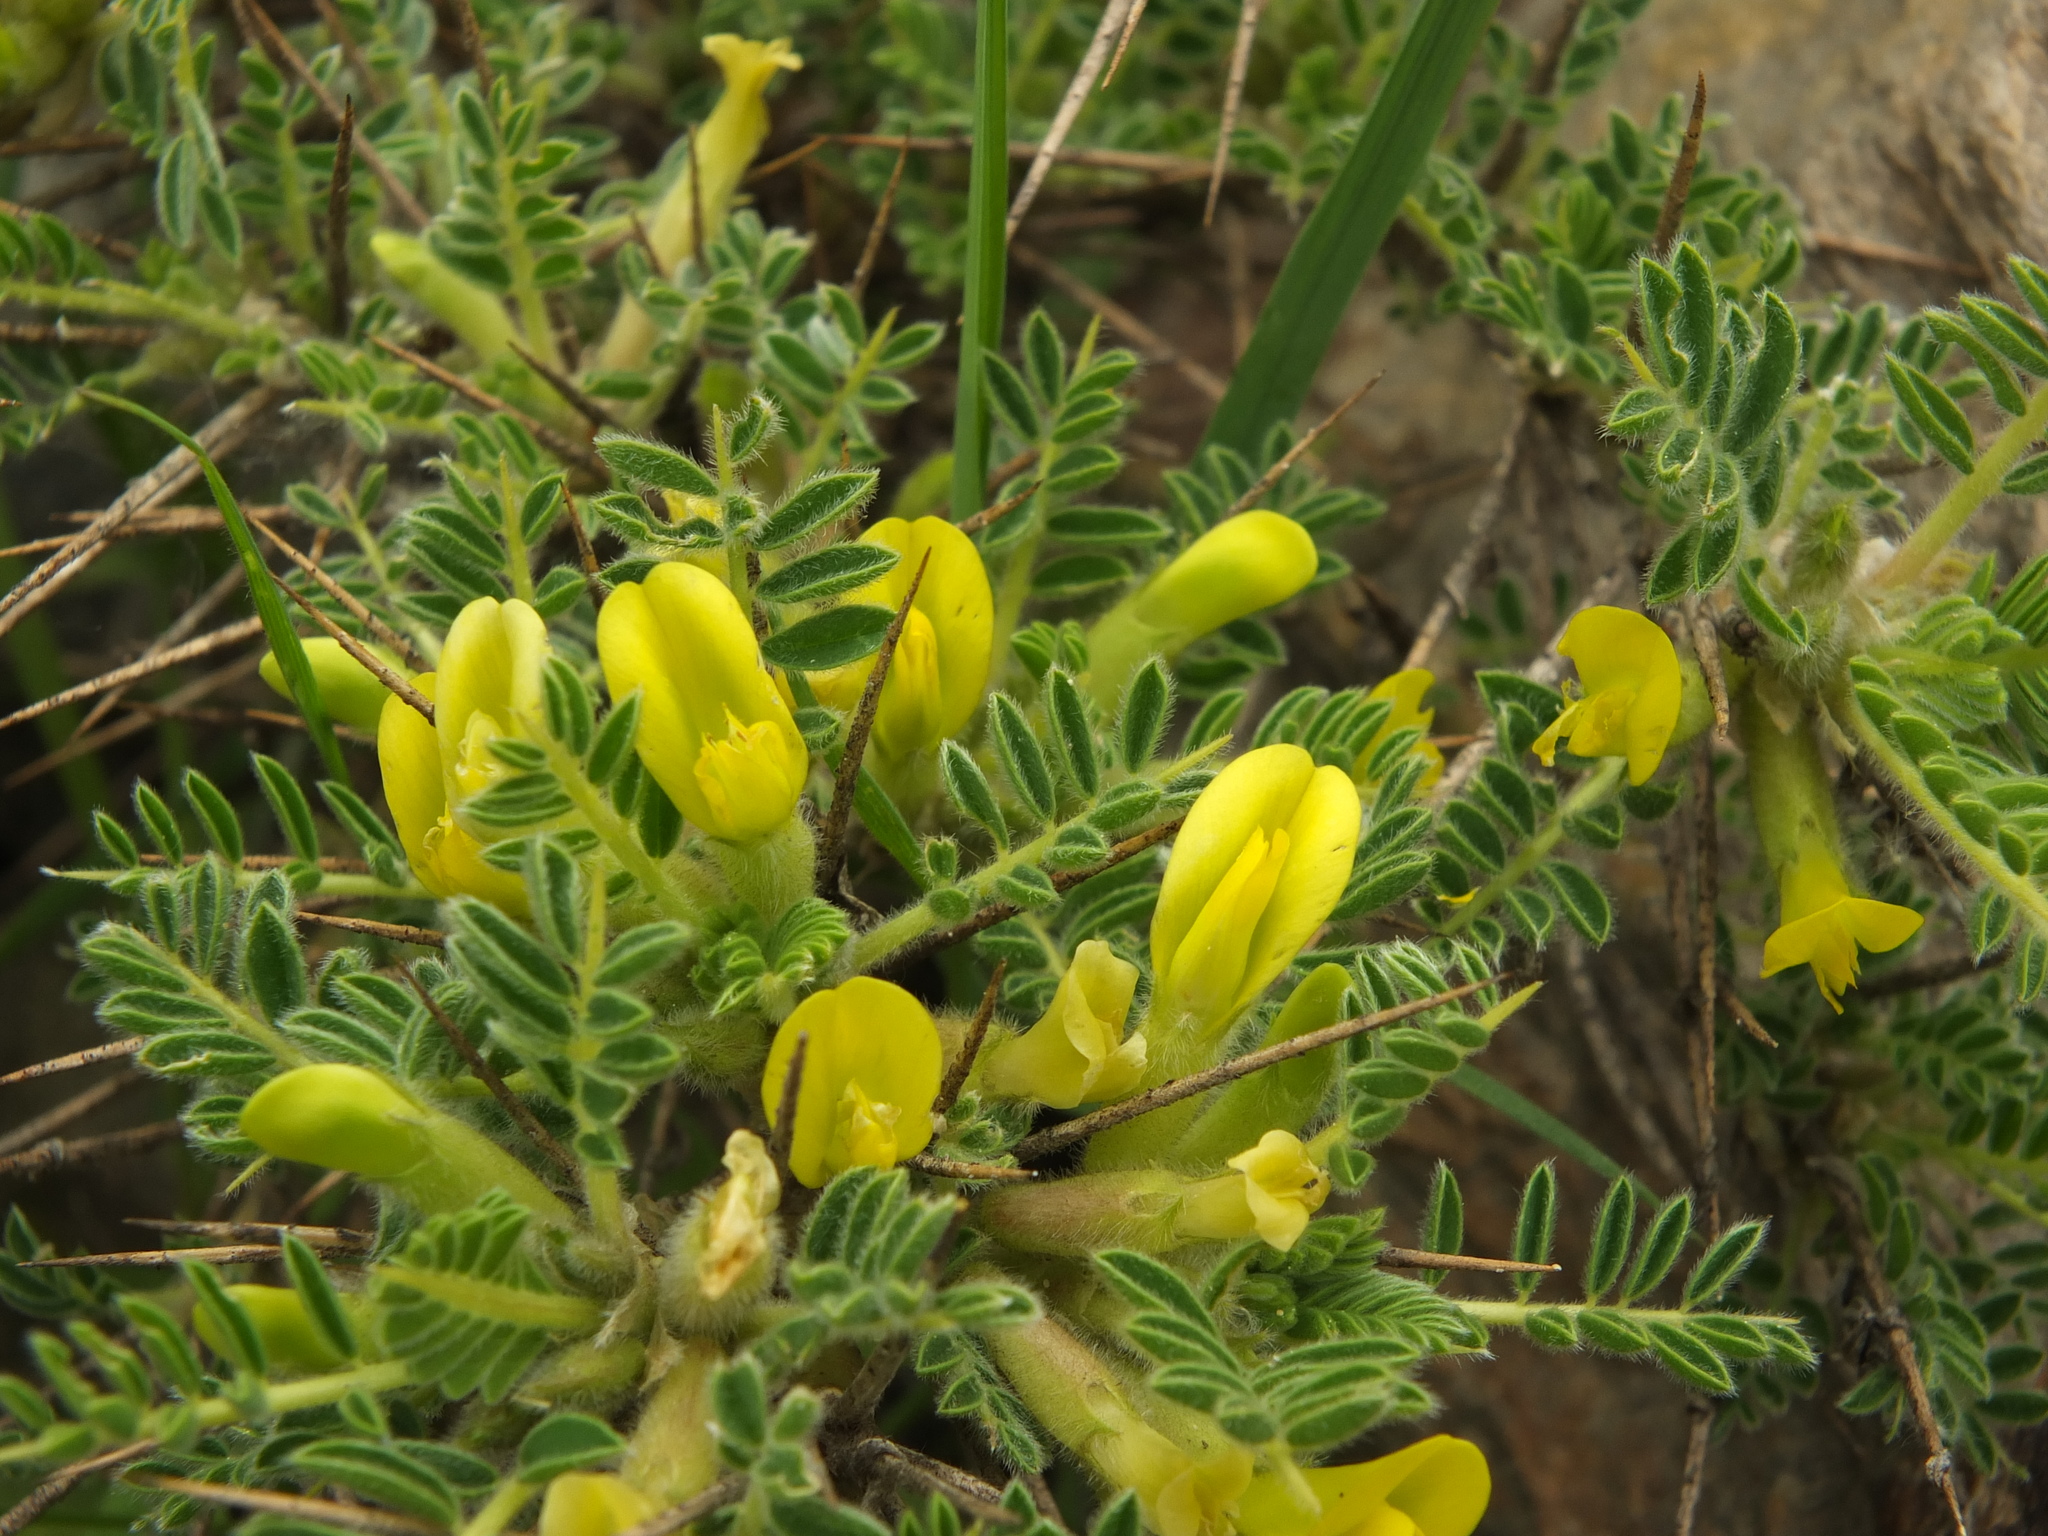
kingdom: Plantae
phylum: Tracheophyta
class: Magnoliopsida
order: Fabales
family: Fabaceae
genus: Astragalus
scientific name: Astragalus grahamianus
